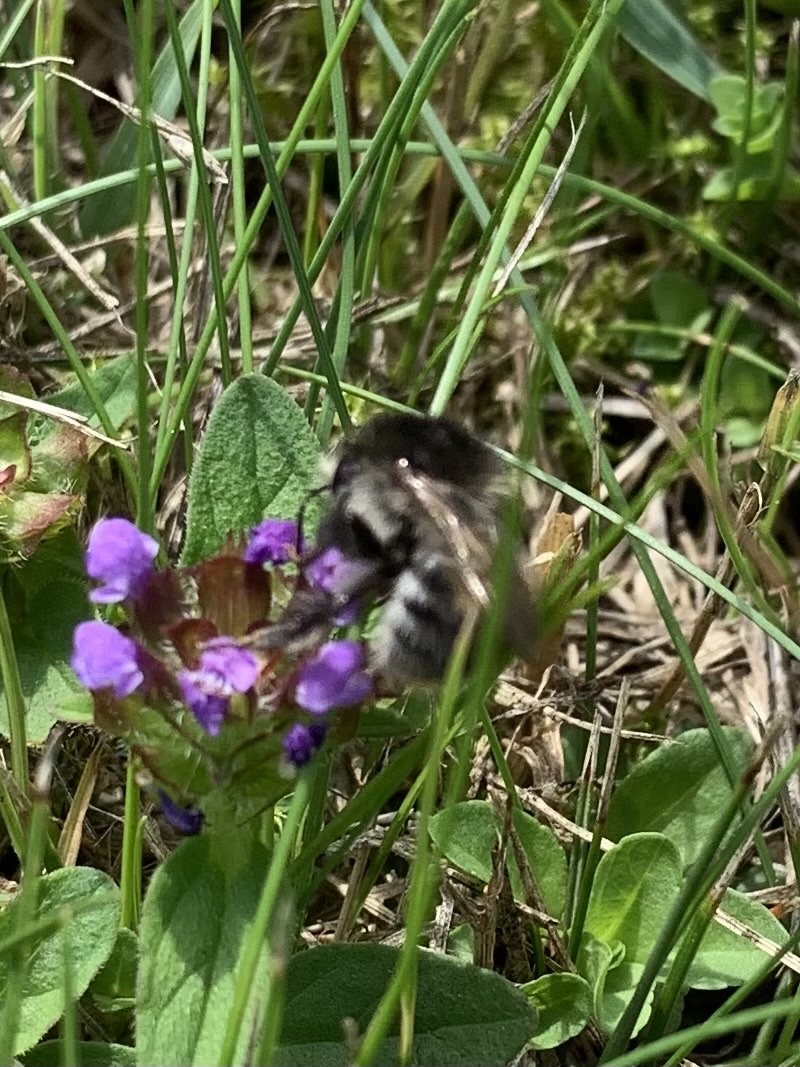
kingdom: Animalia
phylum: Arthropoda
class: Insecta
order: Hymenoptera
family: Apidae
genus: Bombus
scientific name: Bombus pascuorum
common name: Common carder bee
